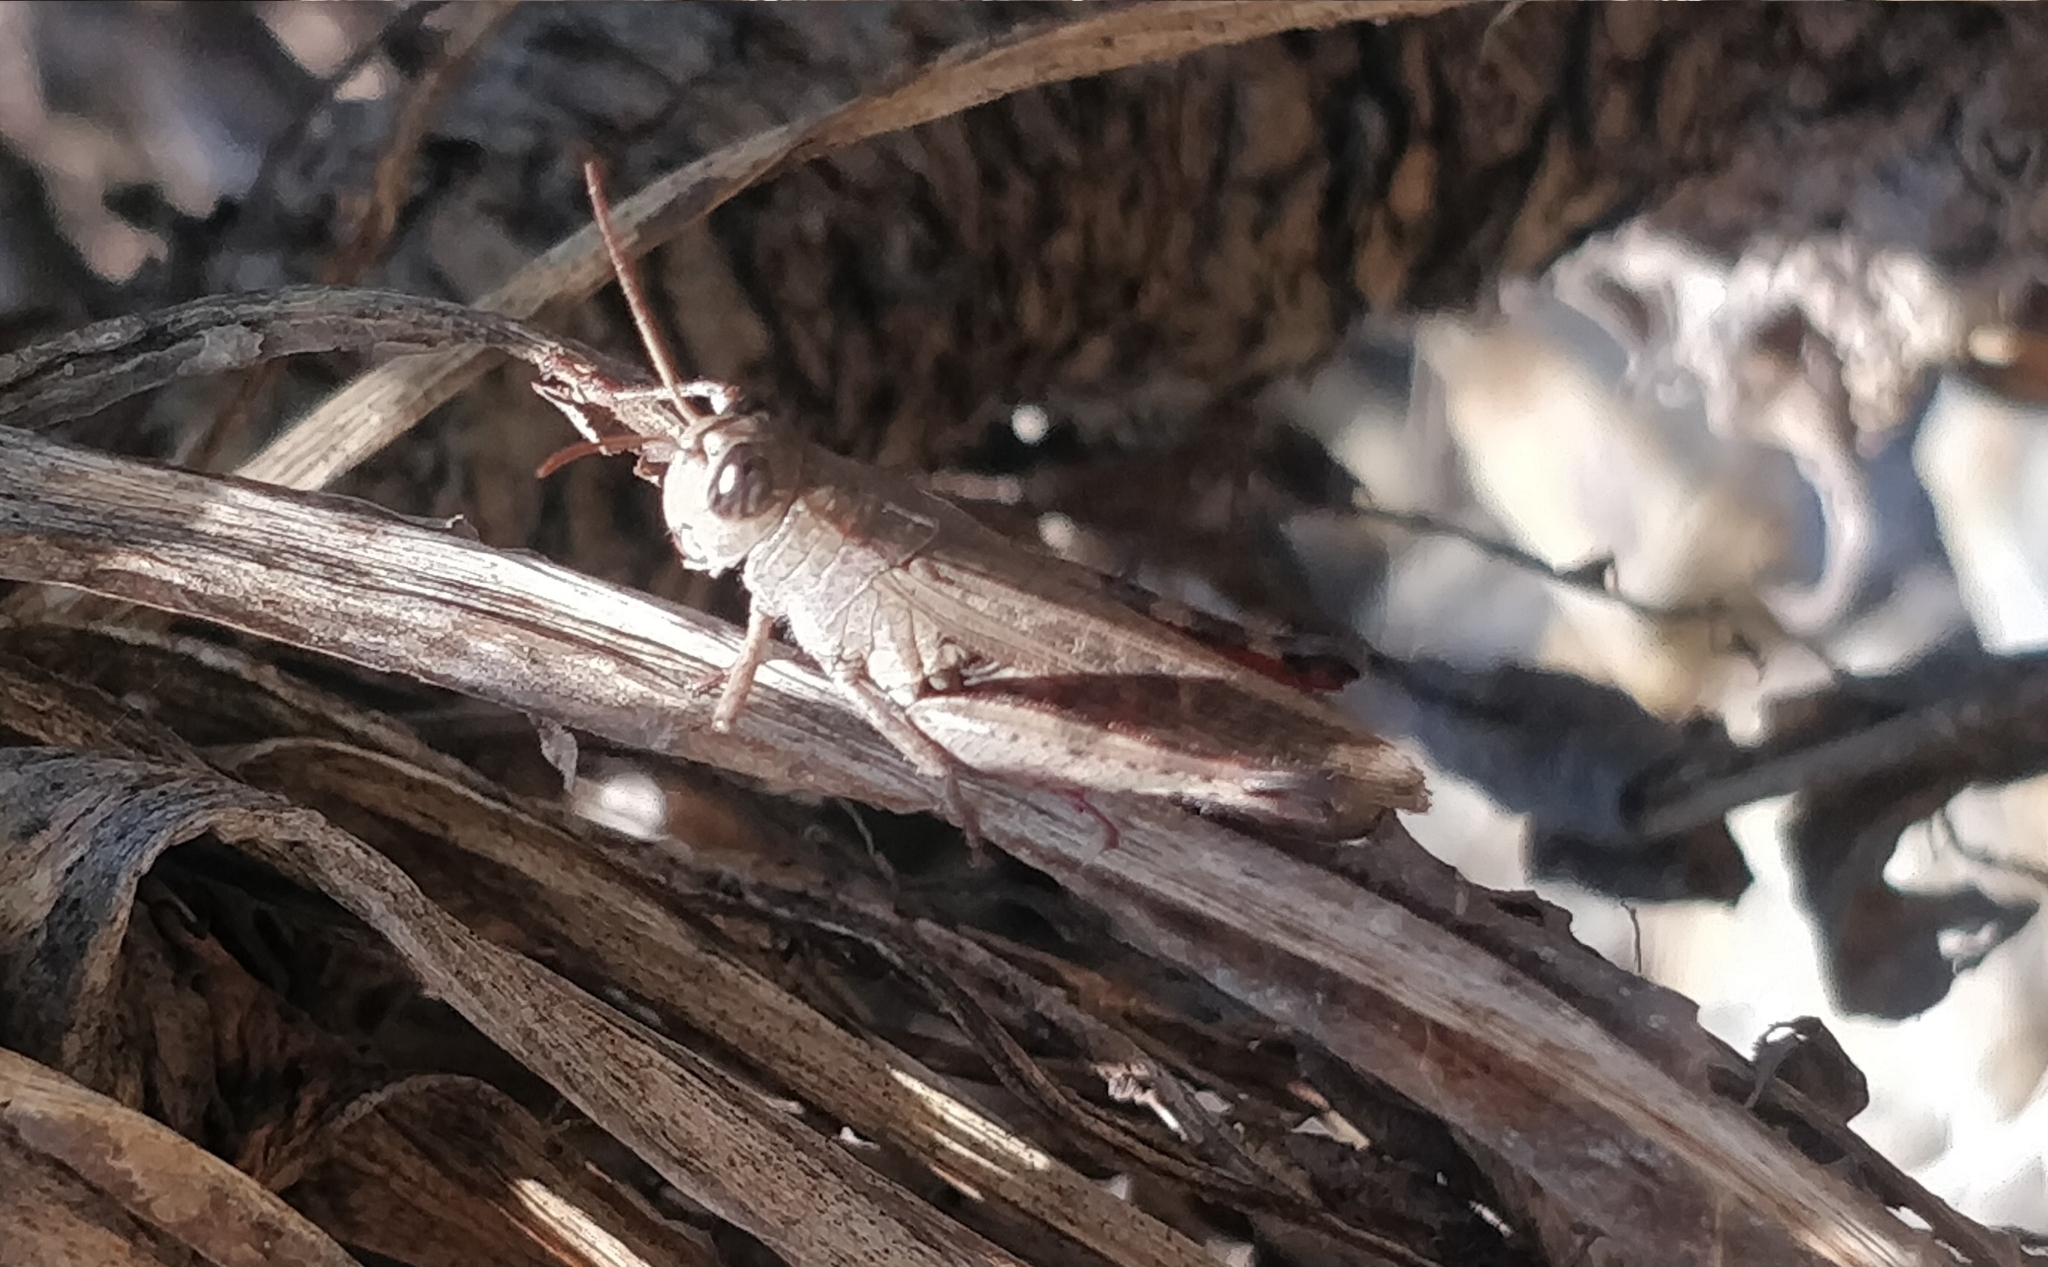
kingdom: Animalia
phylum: Arthropoda
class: Insecta
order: Orthoptera
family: Acrididae
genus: Calliptamus
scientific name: Calliptamus plebeius
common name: Canarian pincer grasshopper
